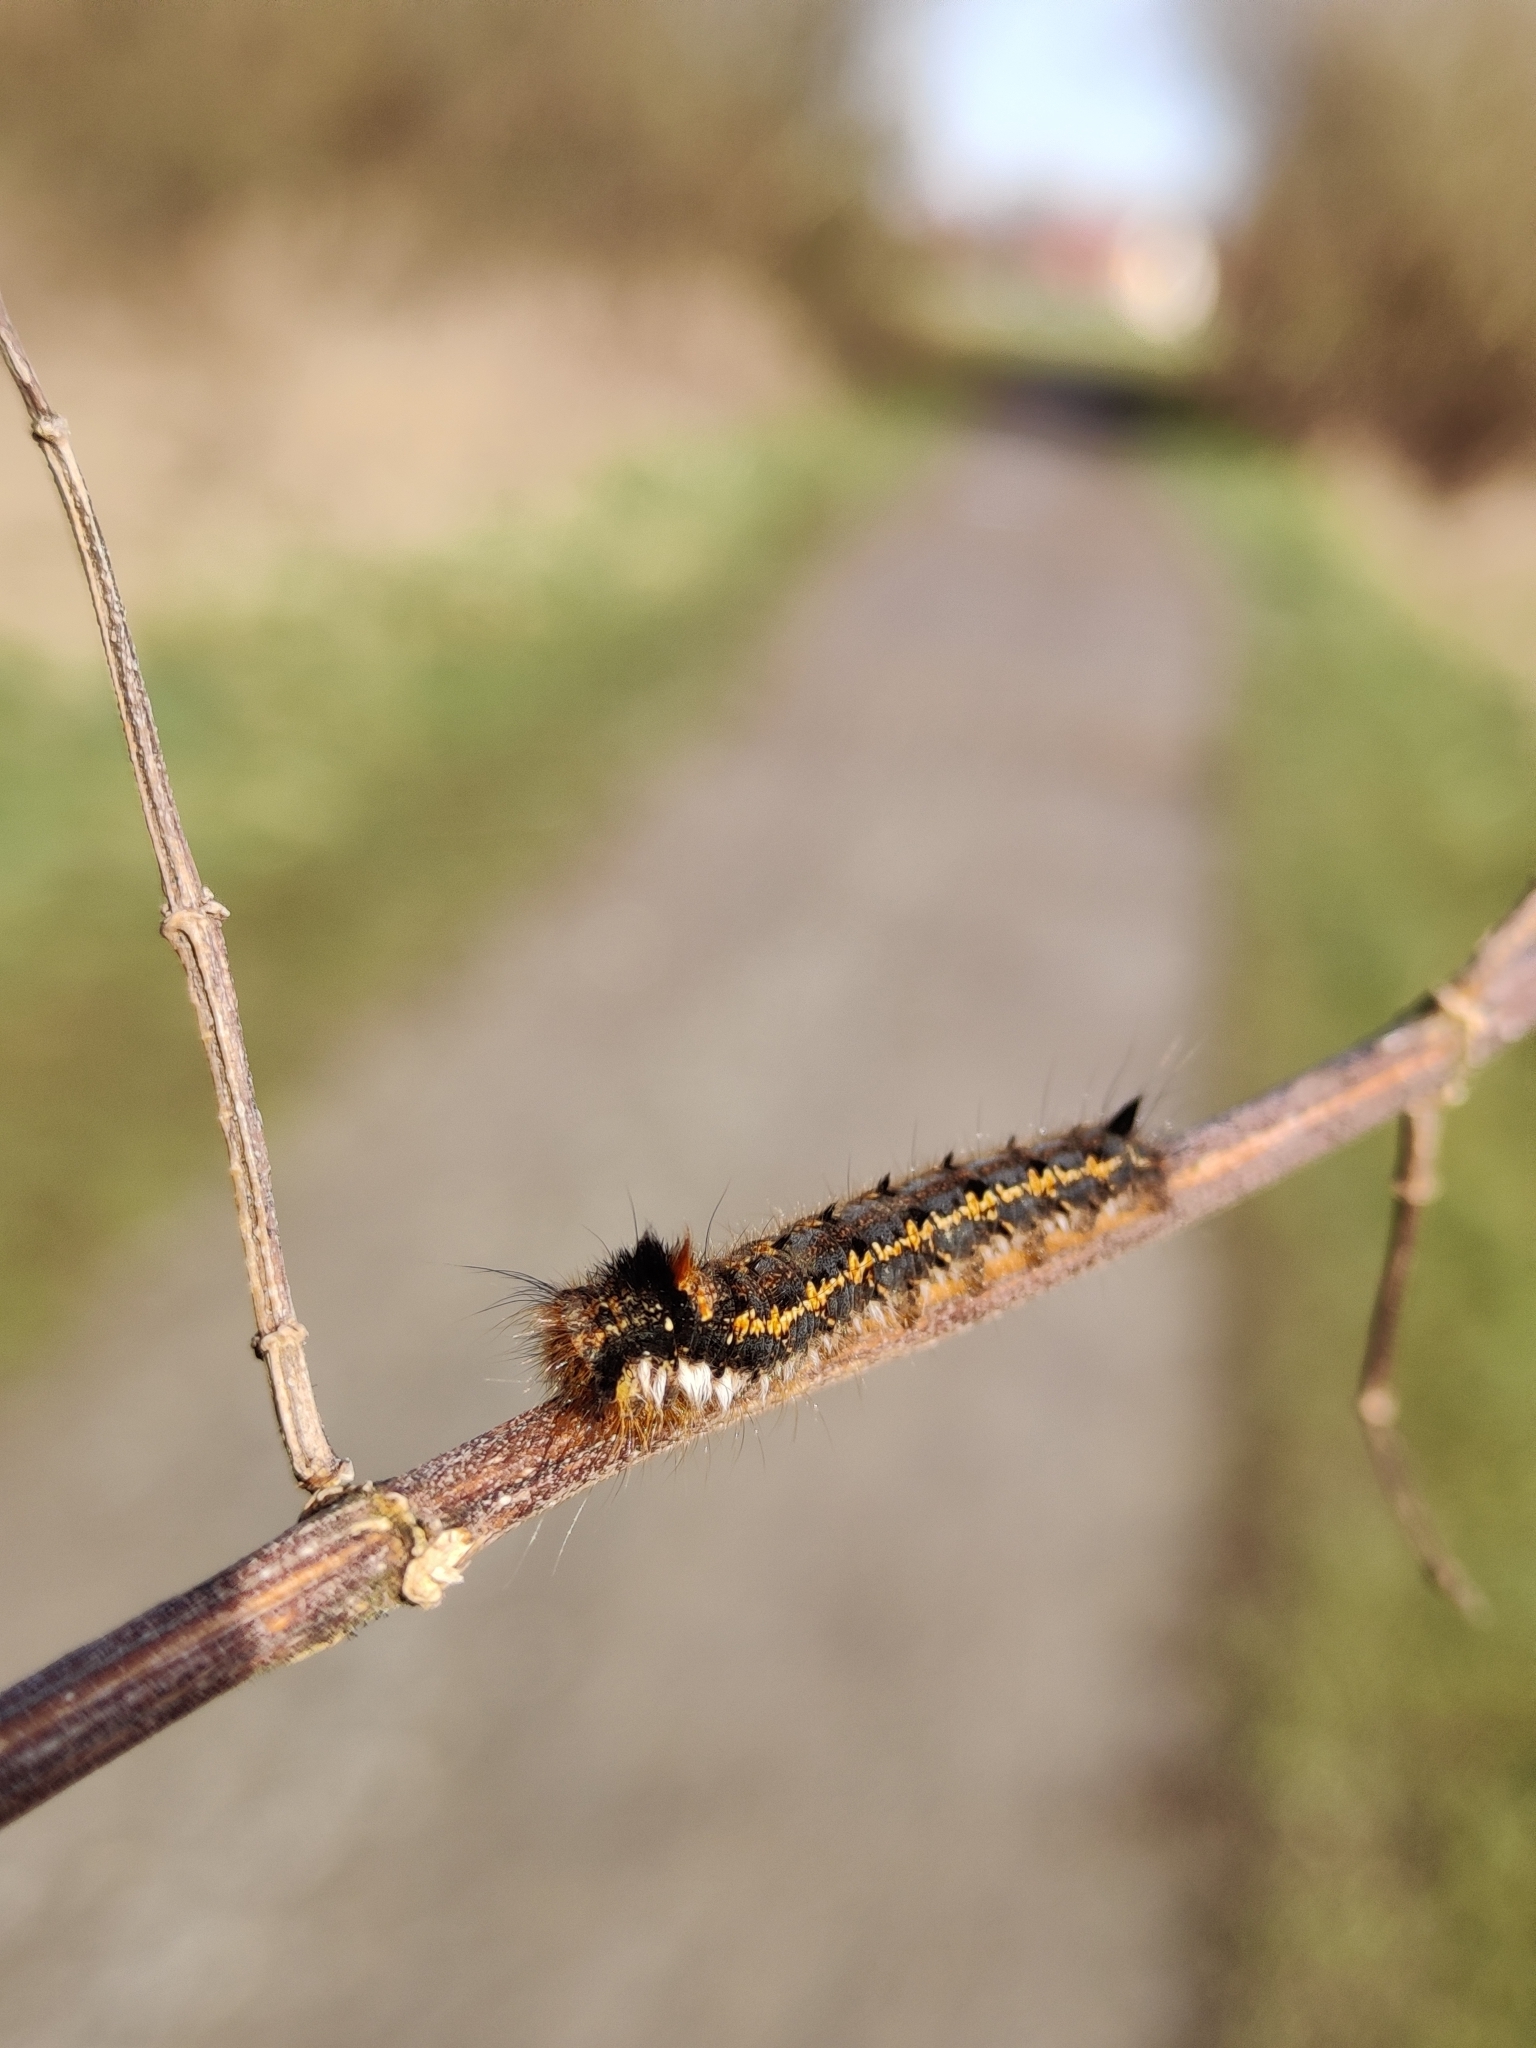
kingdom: Animalia
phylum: Arthropoda
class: Insecta
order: Lepidoptera
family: Lasiocampidae
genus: Euthrix
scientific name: Euthrix potatoria
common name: Drinker
